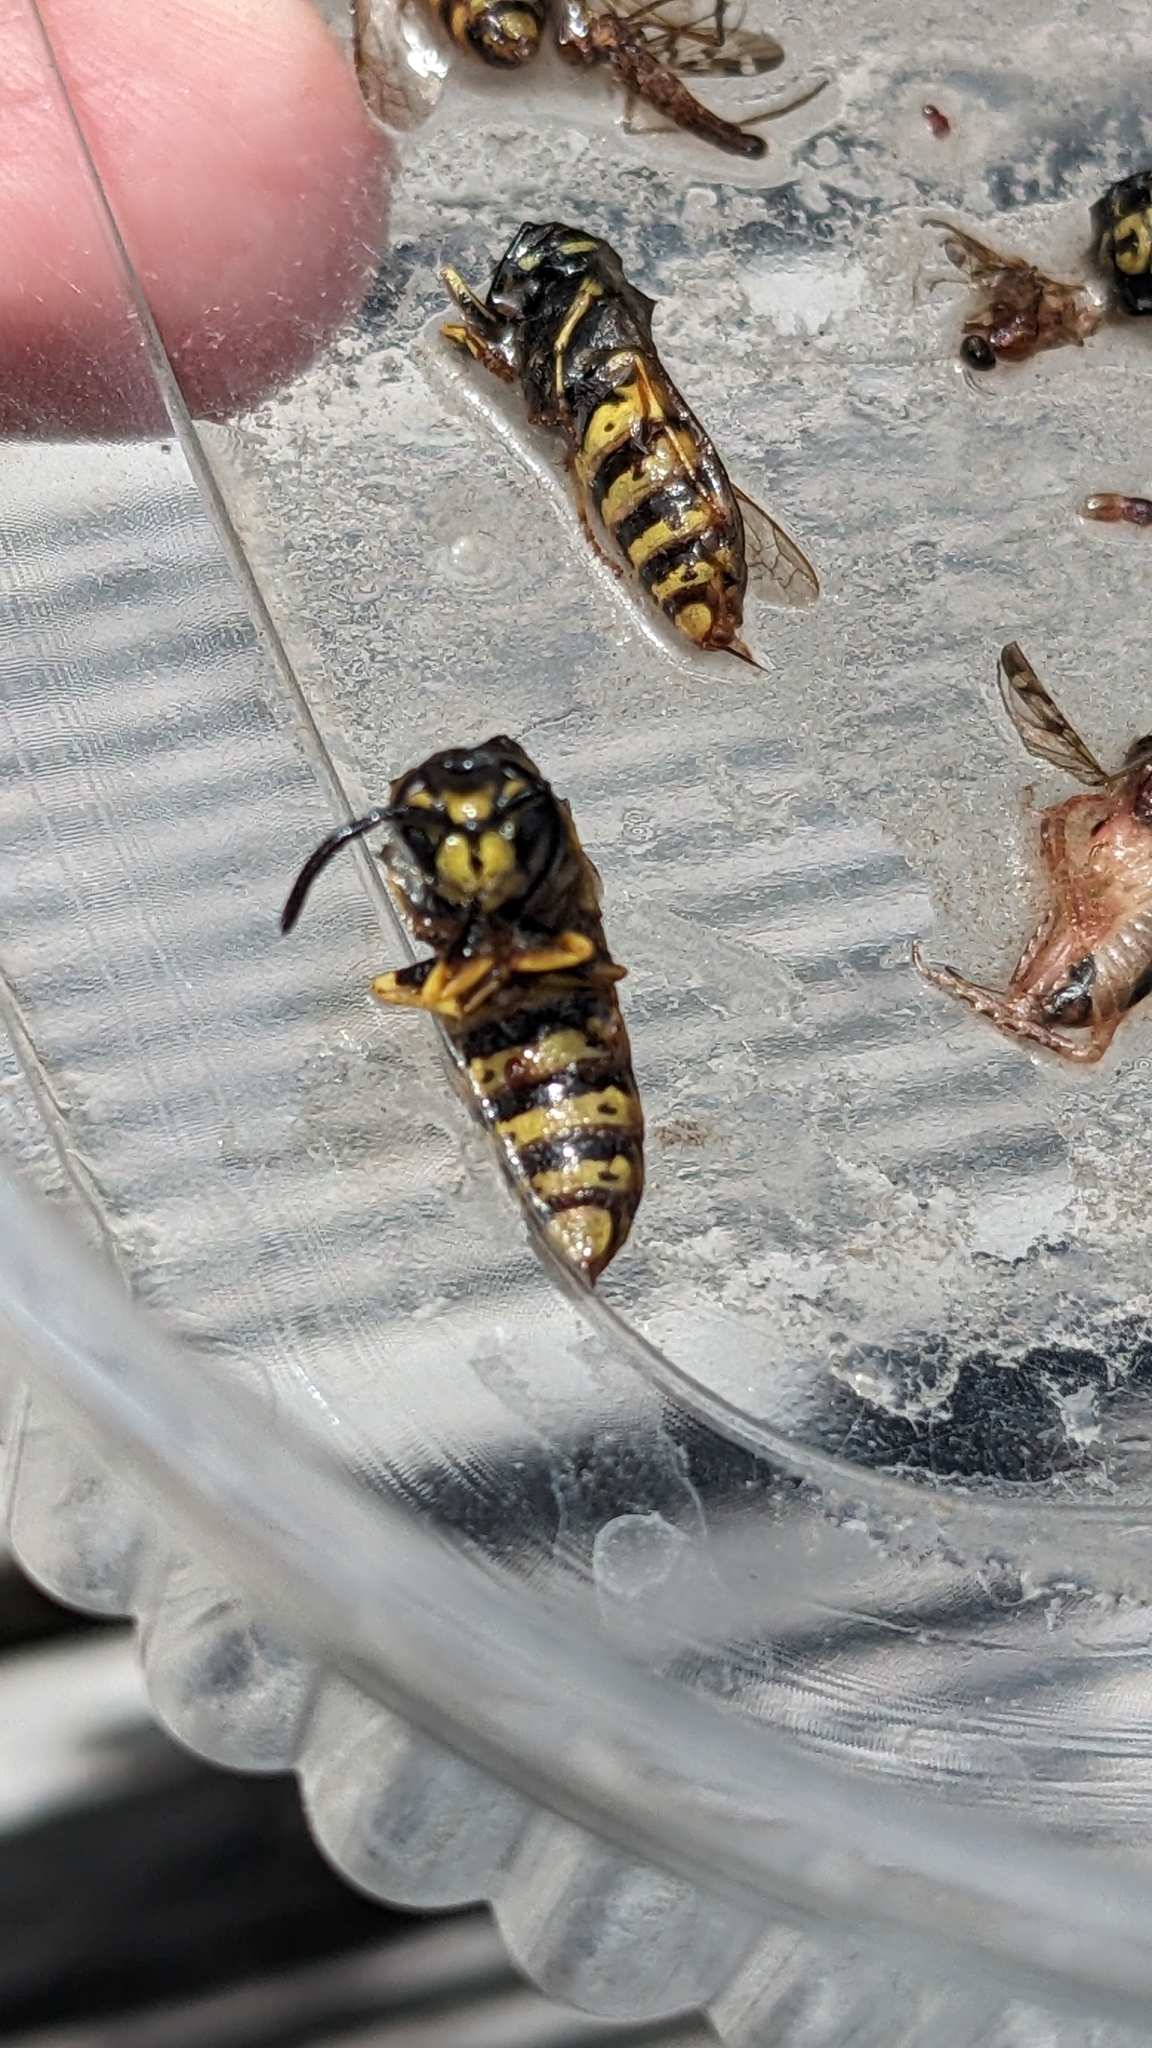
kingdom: Animalia
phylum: Arthropoda
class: Insecta
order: Hymenoptera
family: Vespidae
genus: Vespula
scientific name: Vespula germanica
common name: German wasp
